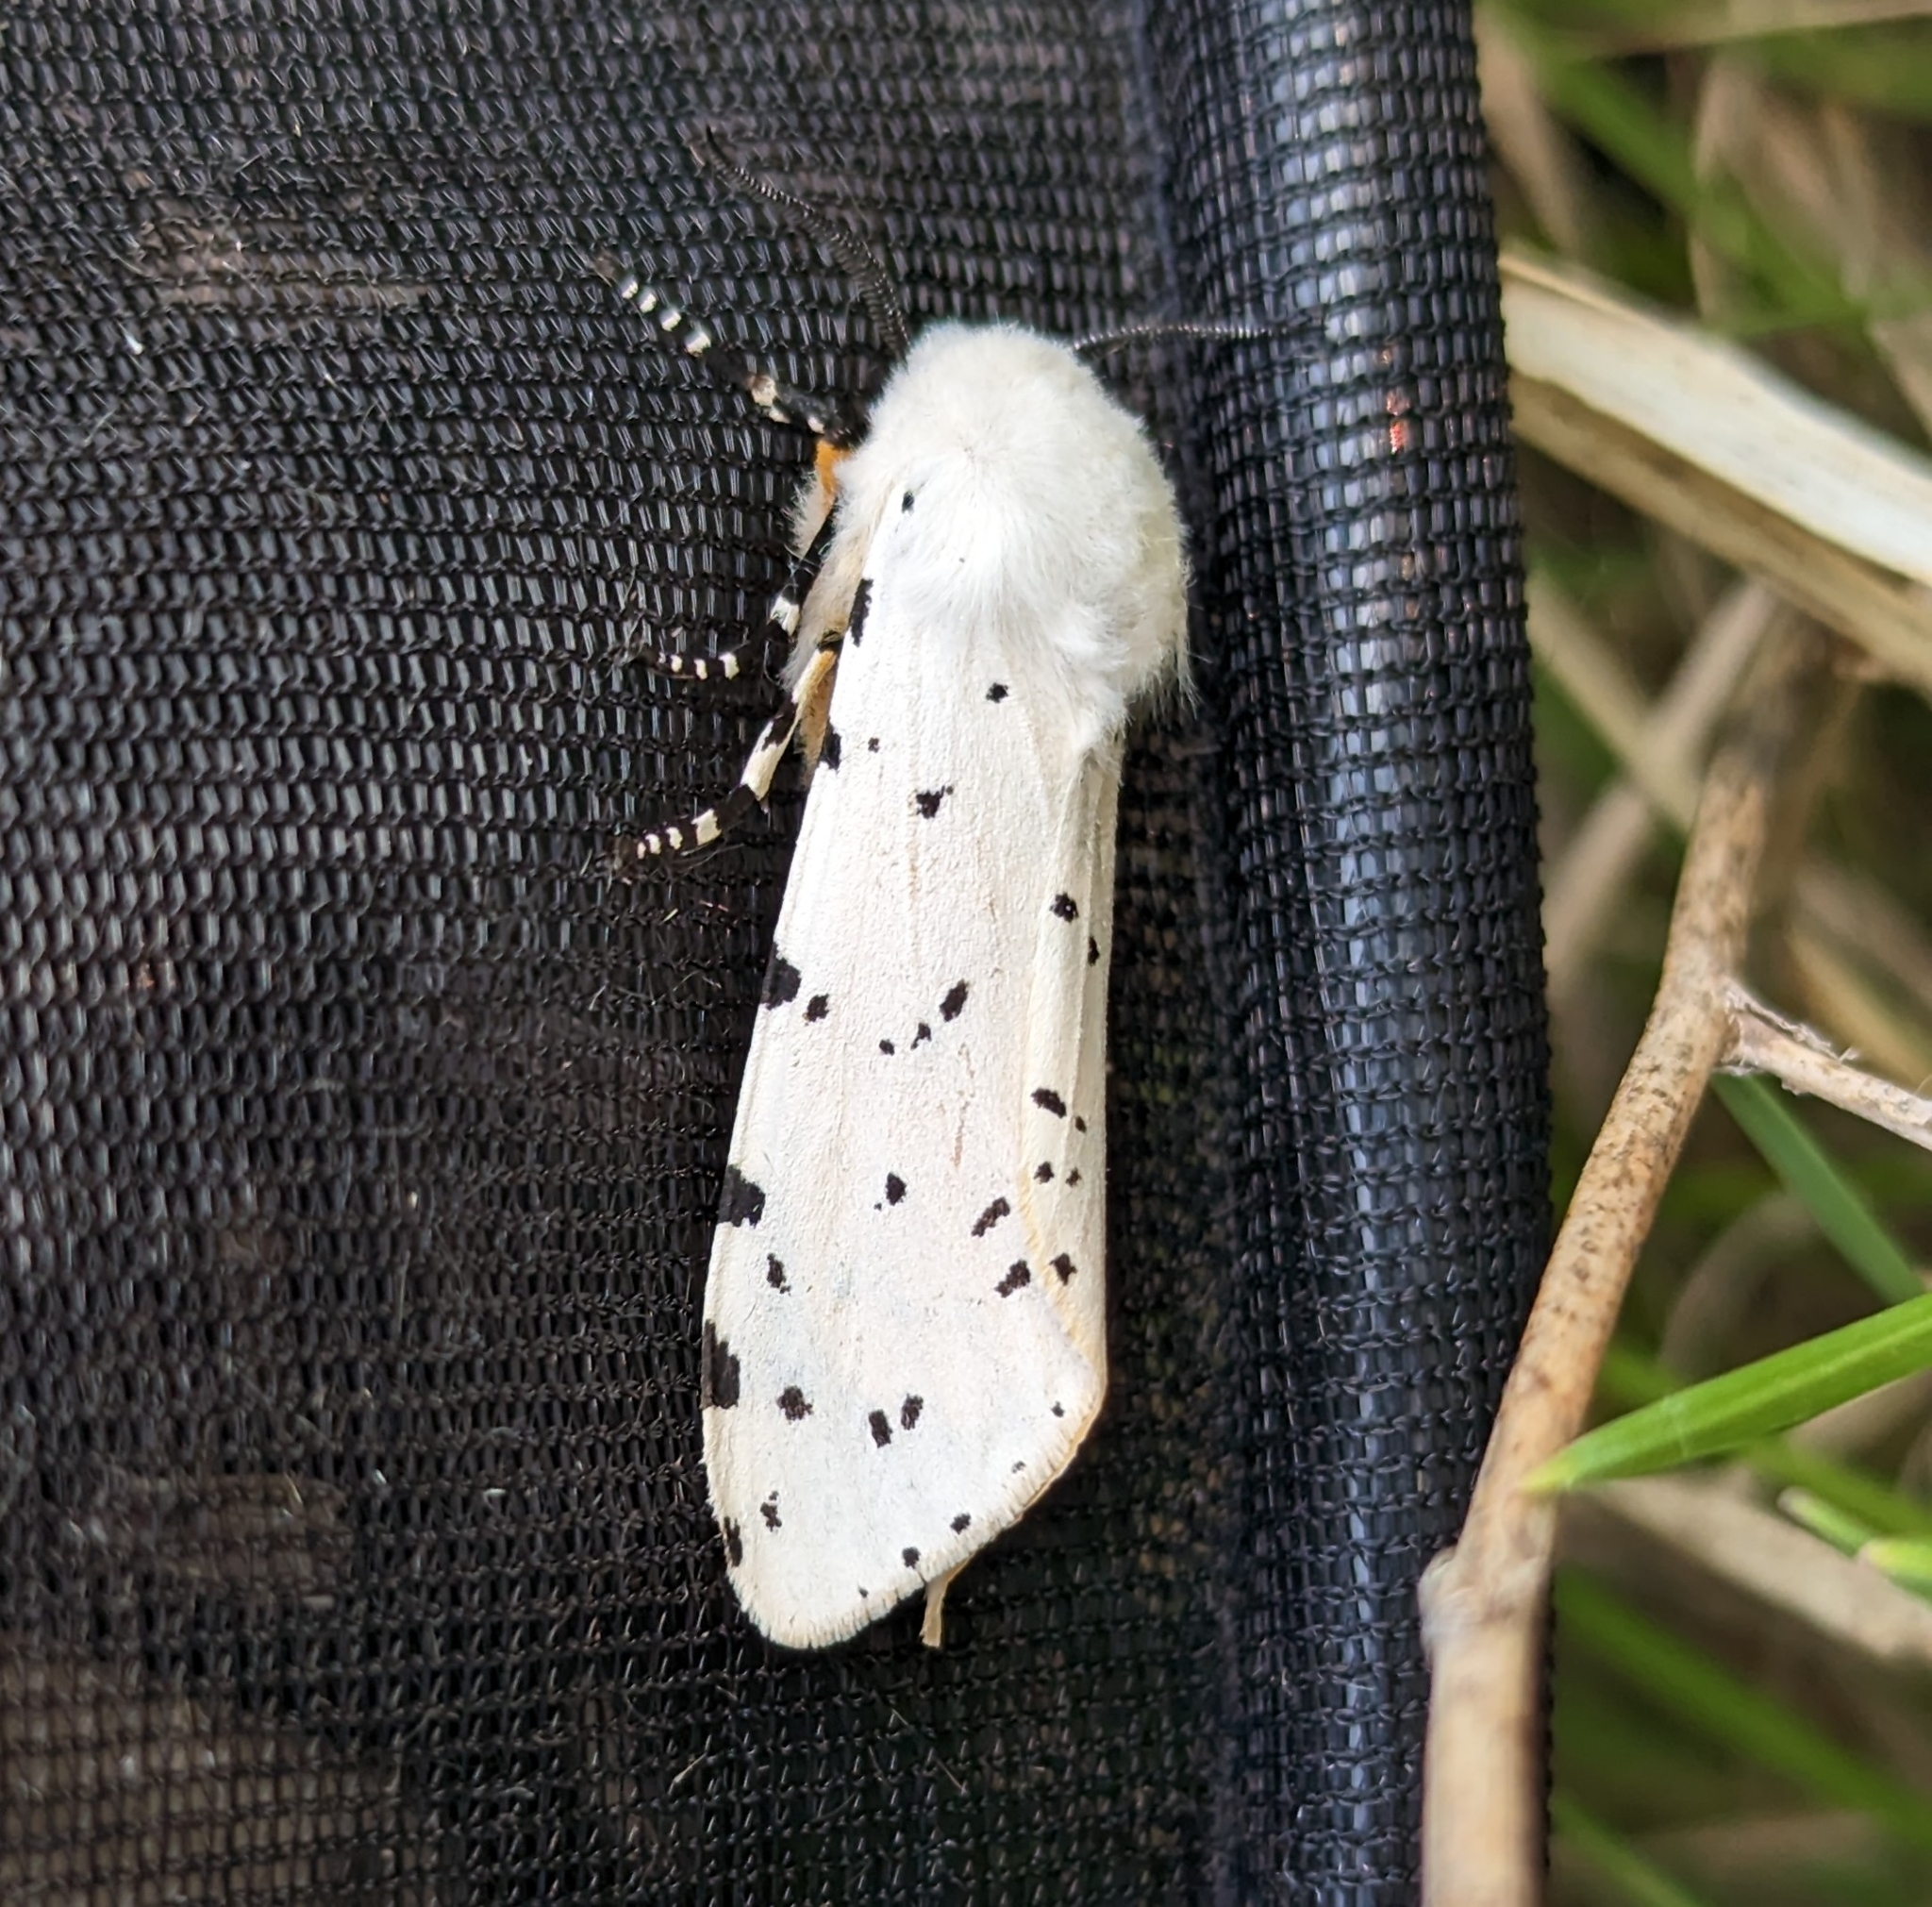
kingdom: Animalia
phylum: Arthropoda
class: Insecta
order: Lepidoptera
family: Erebidae
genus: Estigmene
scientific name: Estigmene acrea
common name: Salt marsh moth
